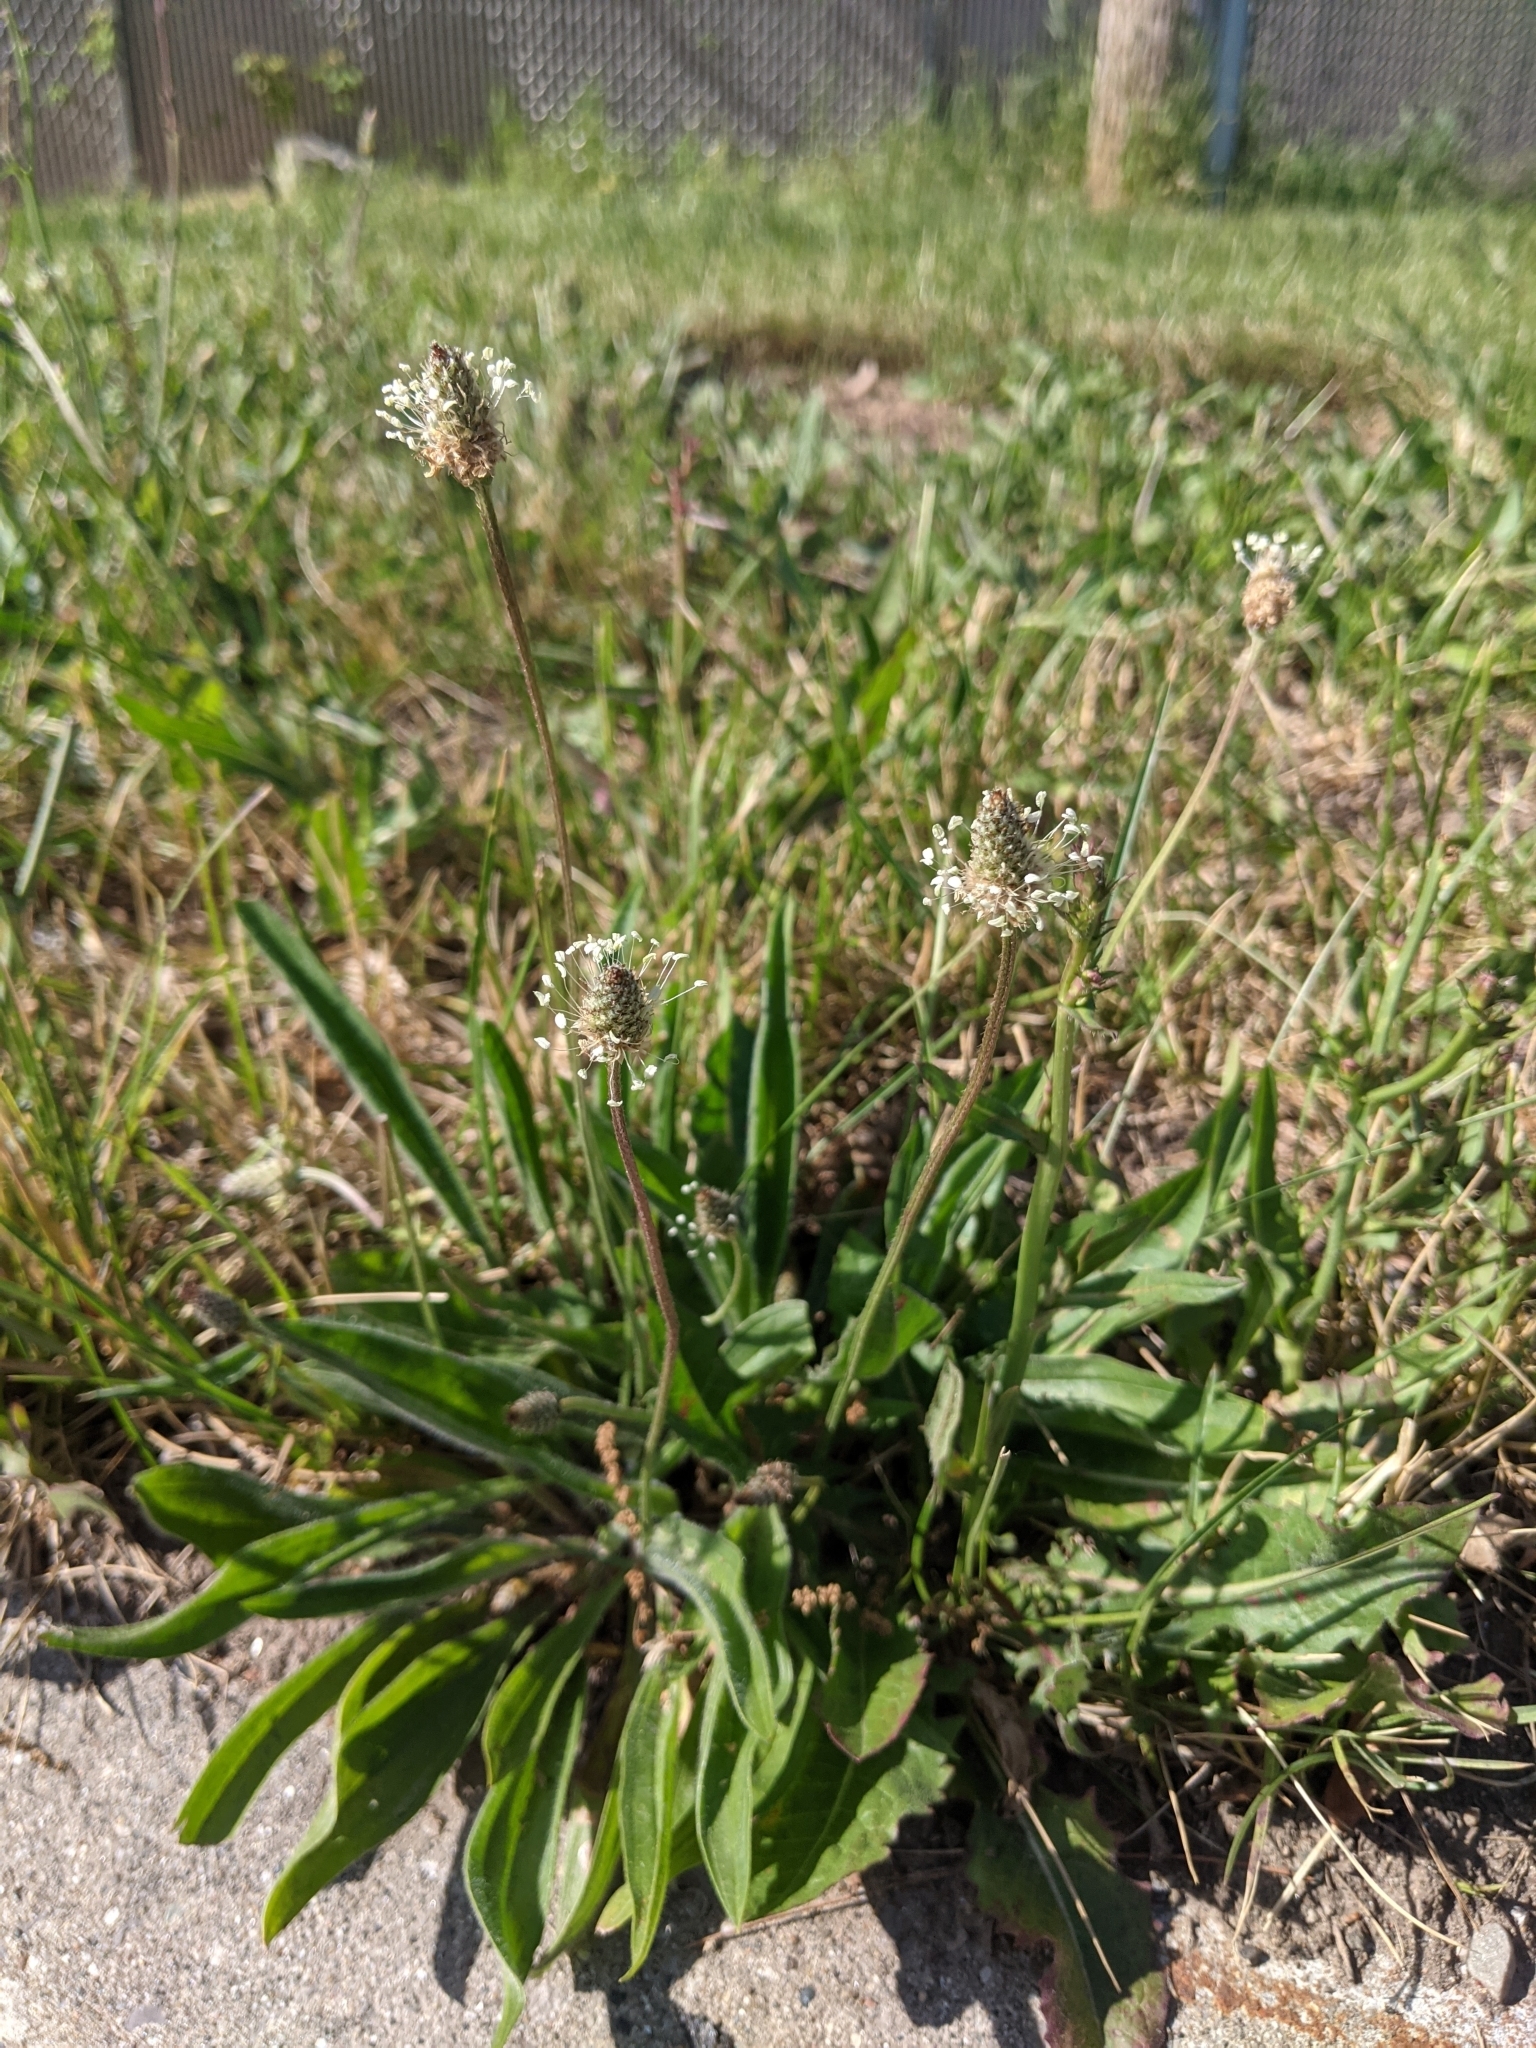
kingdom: Plantae
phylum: Tracheophyta
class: Magnoliopsida
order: Lamiales
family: Plantaginaceae
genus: Plantago
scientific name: Plantago lanceolata
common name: Ribwort plantain
